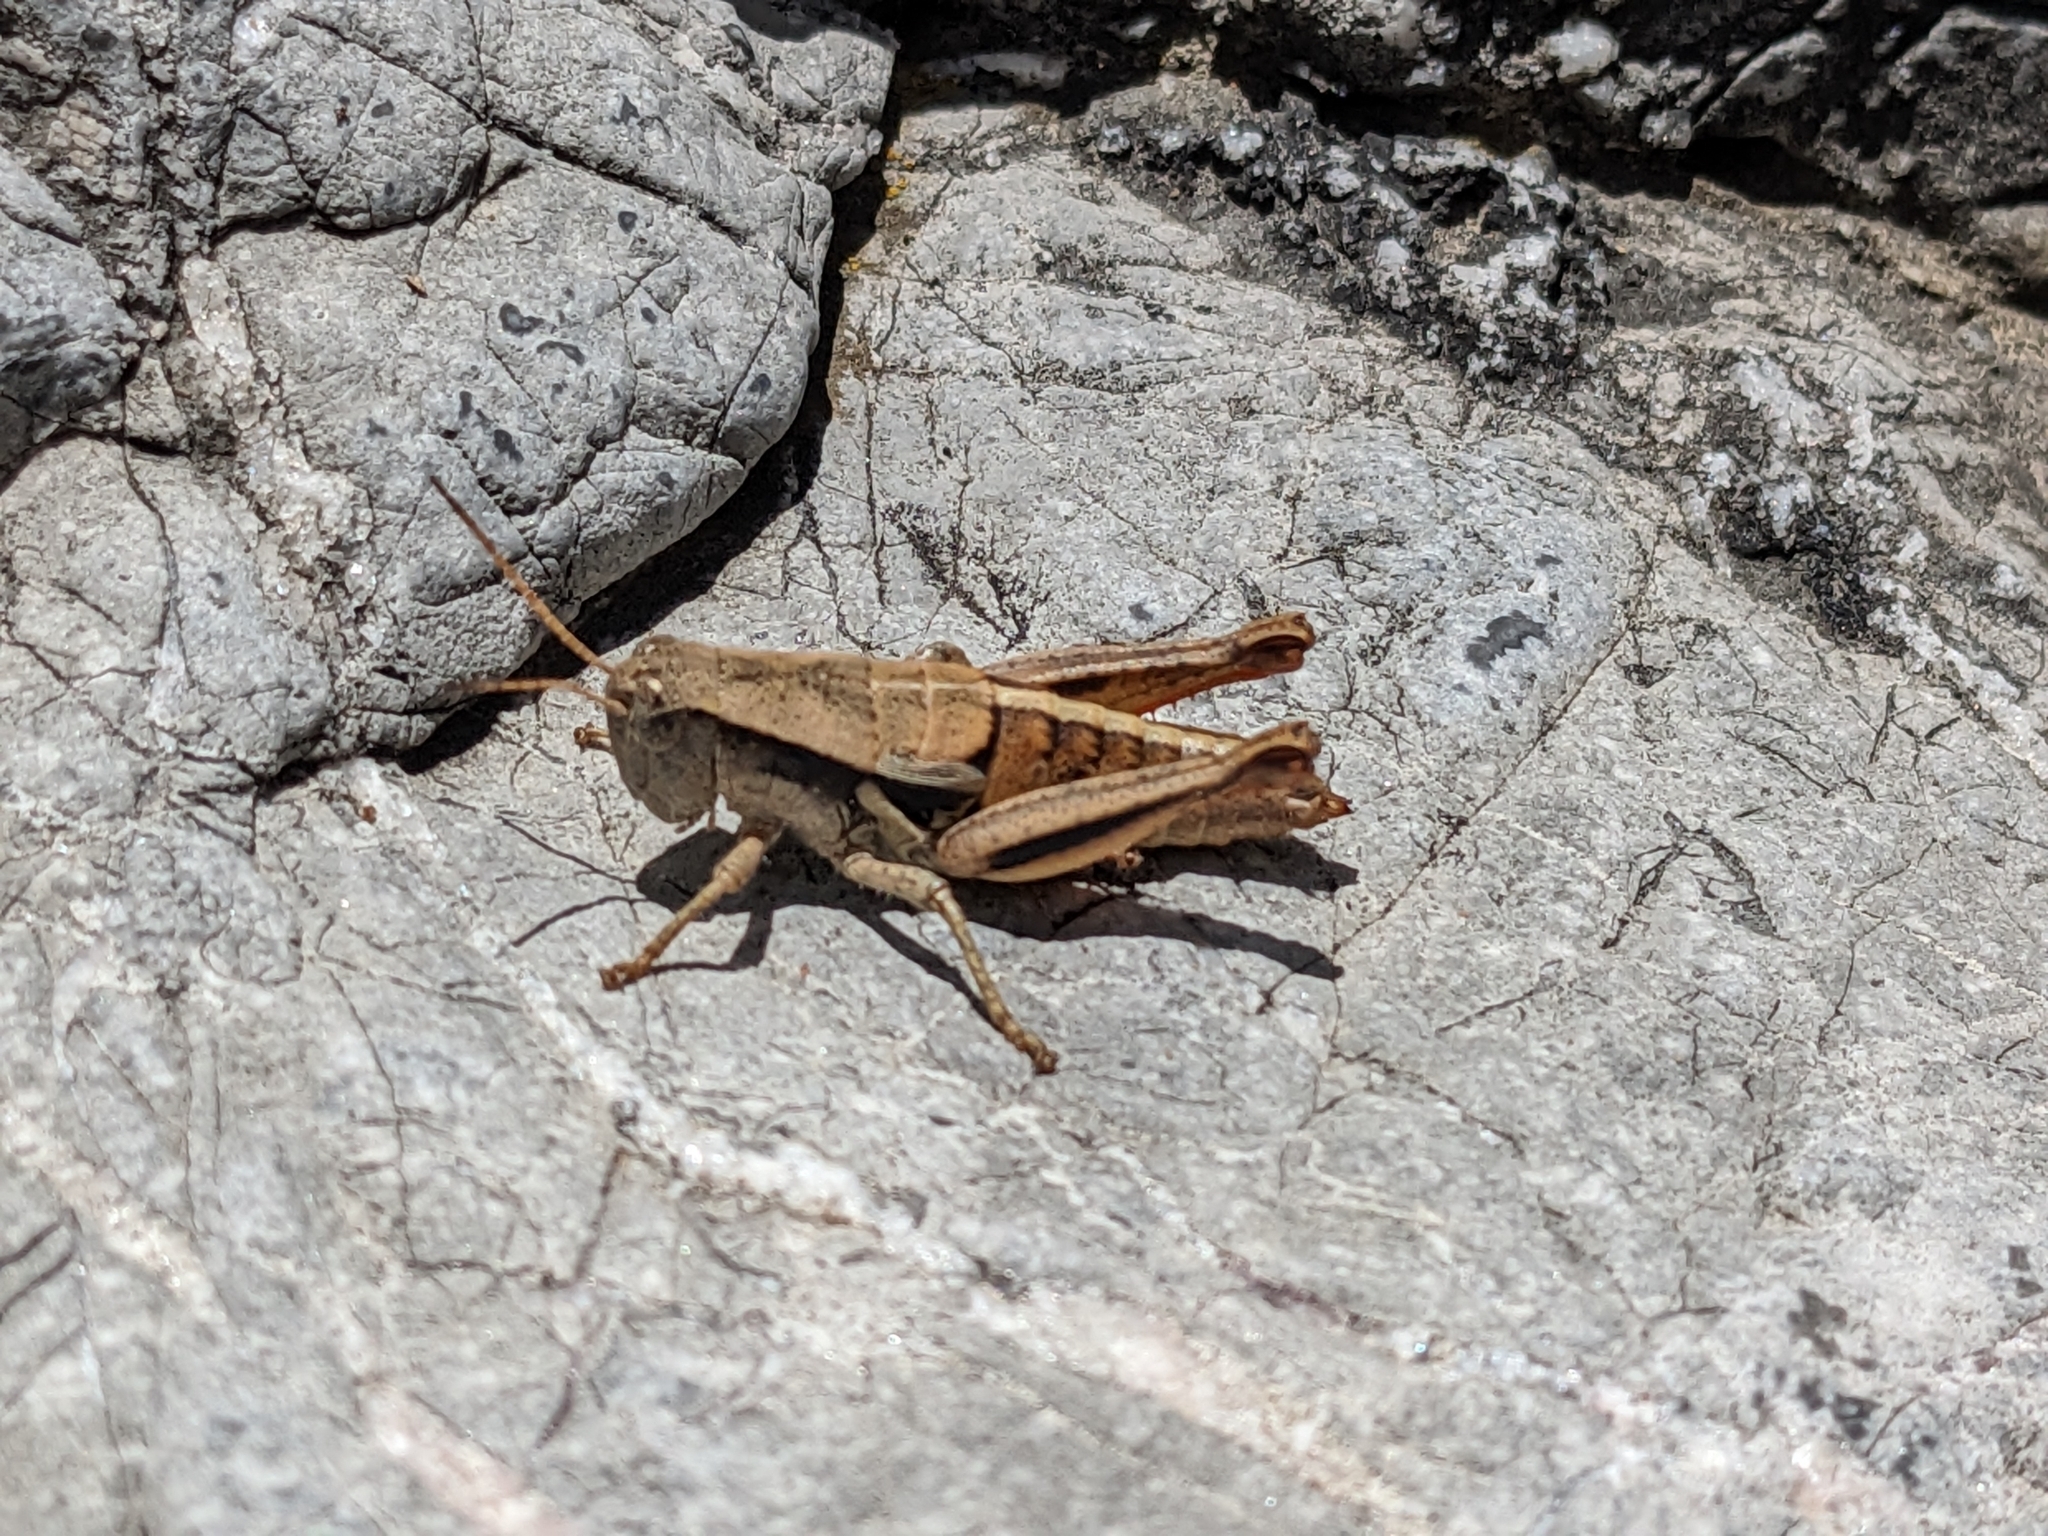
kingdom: Animalia
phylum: Arthropoda
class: Insecta
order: Orthoptera
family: Acrididae
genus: Conalcaea
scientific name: Conalcaea huachucana
